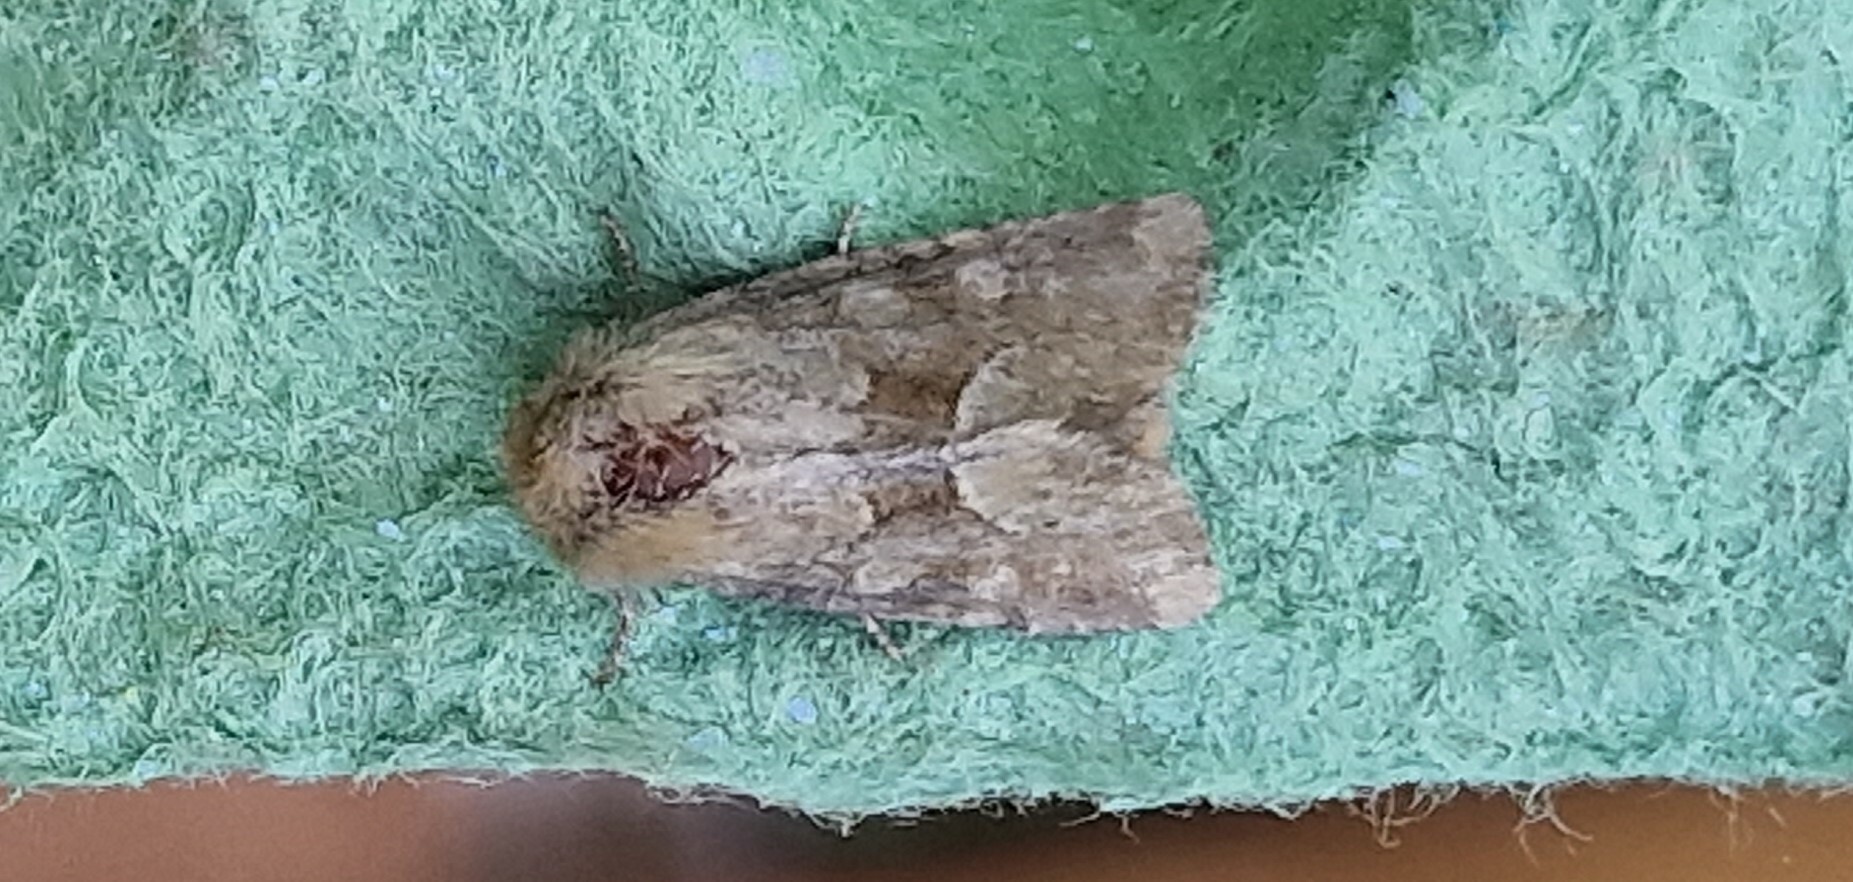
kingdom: Animalia
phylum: Arthropoda
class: Insecta
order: Lepidoptera
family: Noctuidae
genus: Oligia
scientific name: Oligia fasciuncula
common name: Middle-barred minor
